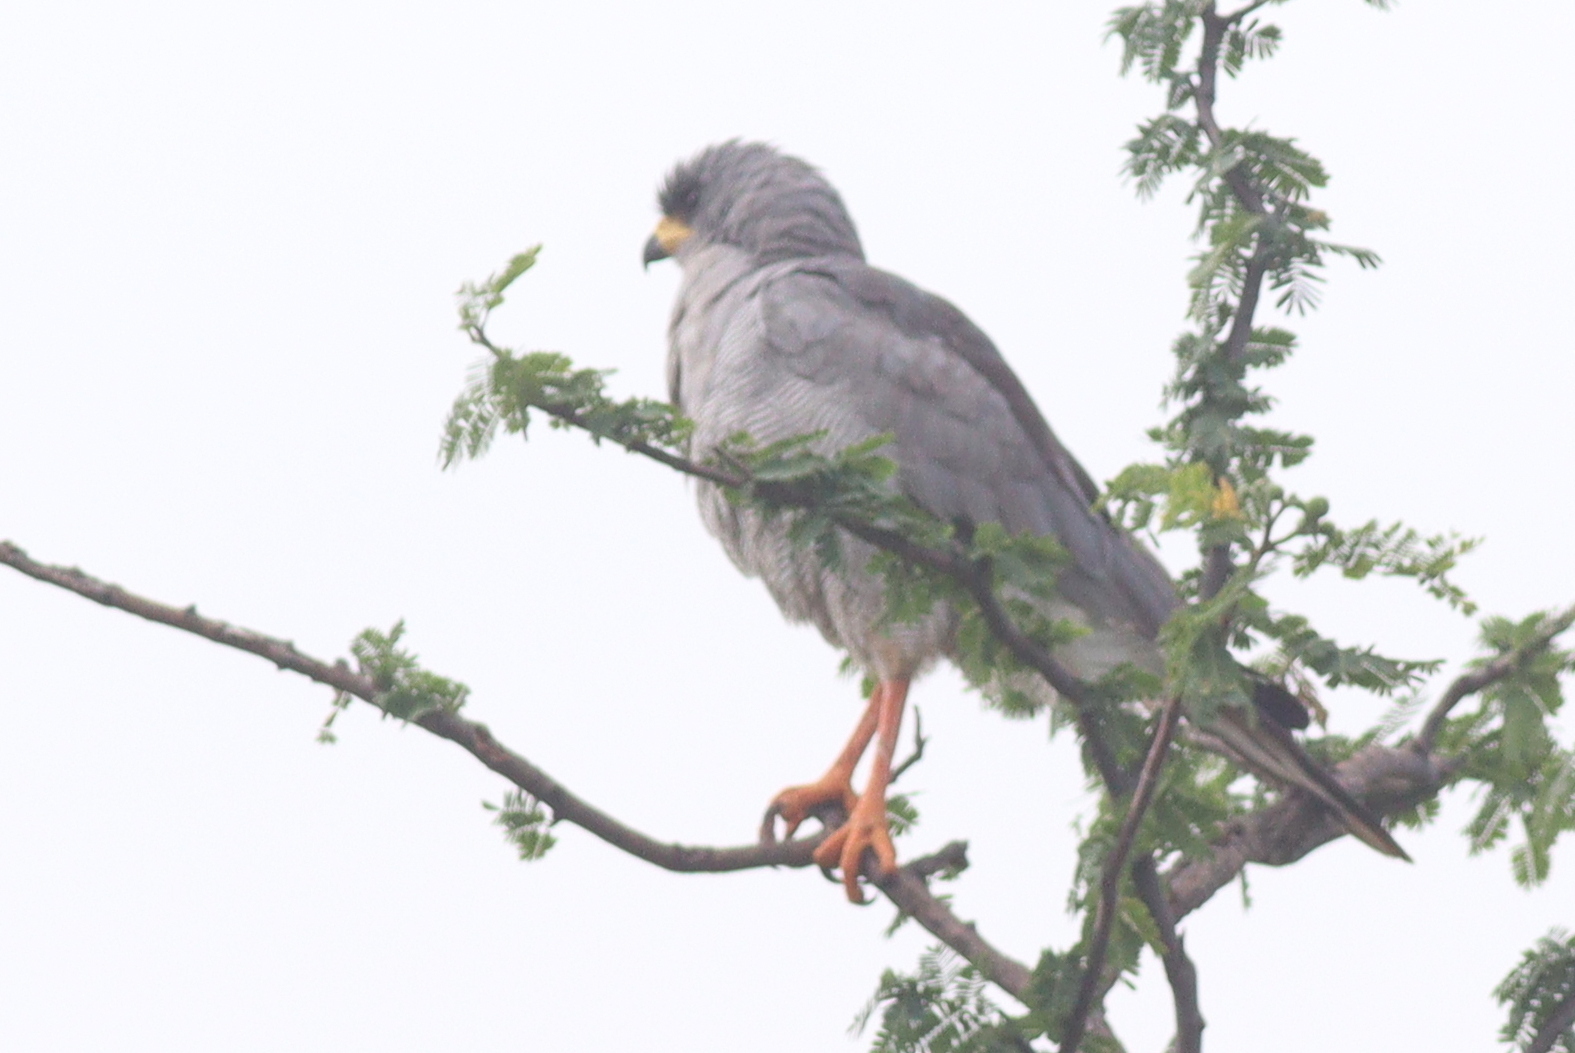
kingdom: Animalia
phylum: Chordata
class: Aves
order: Accipitriformes
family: Accipitridae
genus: Melierax
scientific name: Melierax poliopterus
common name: Eastern chanting goshawk
